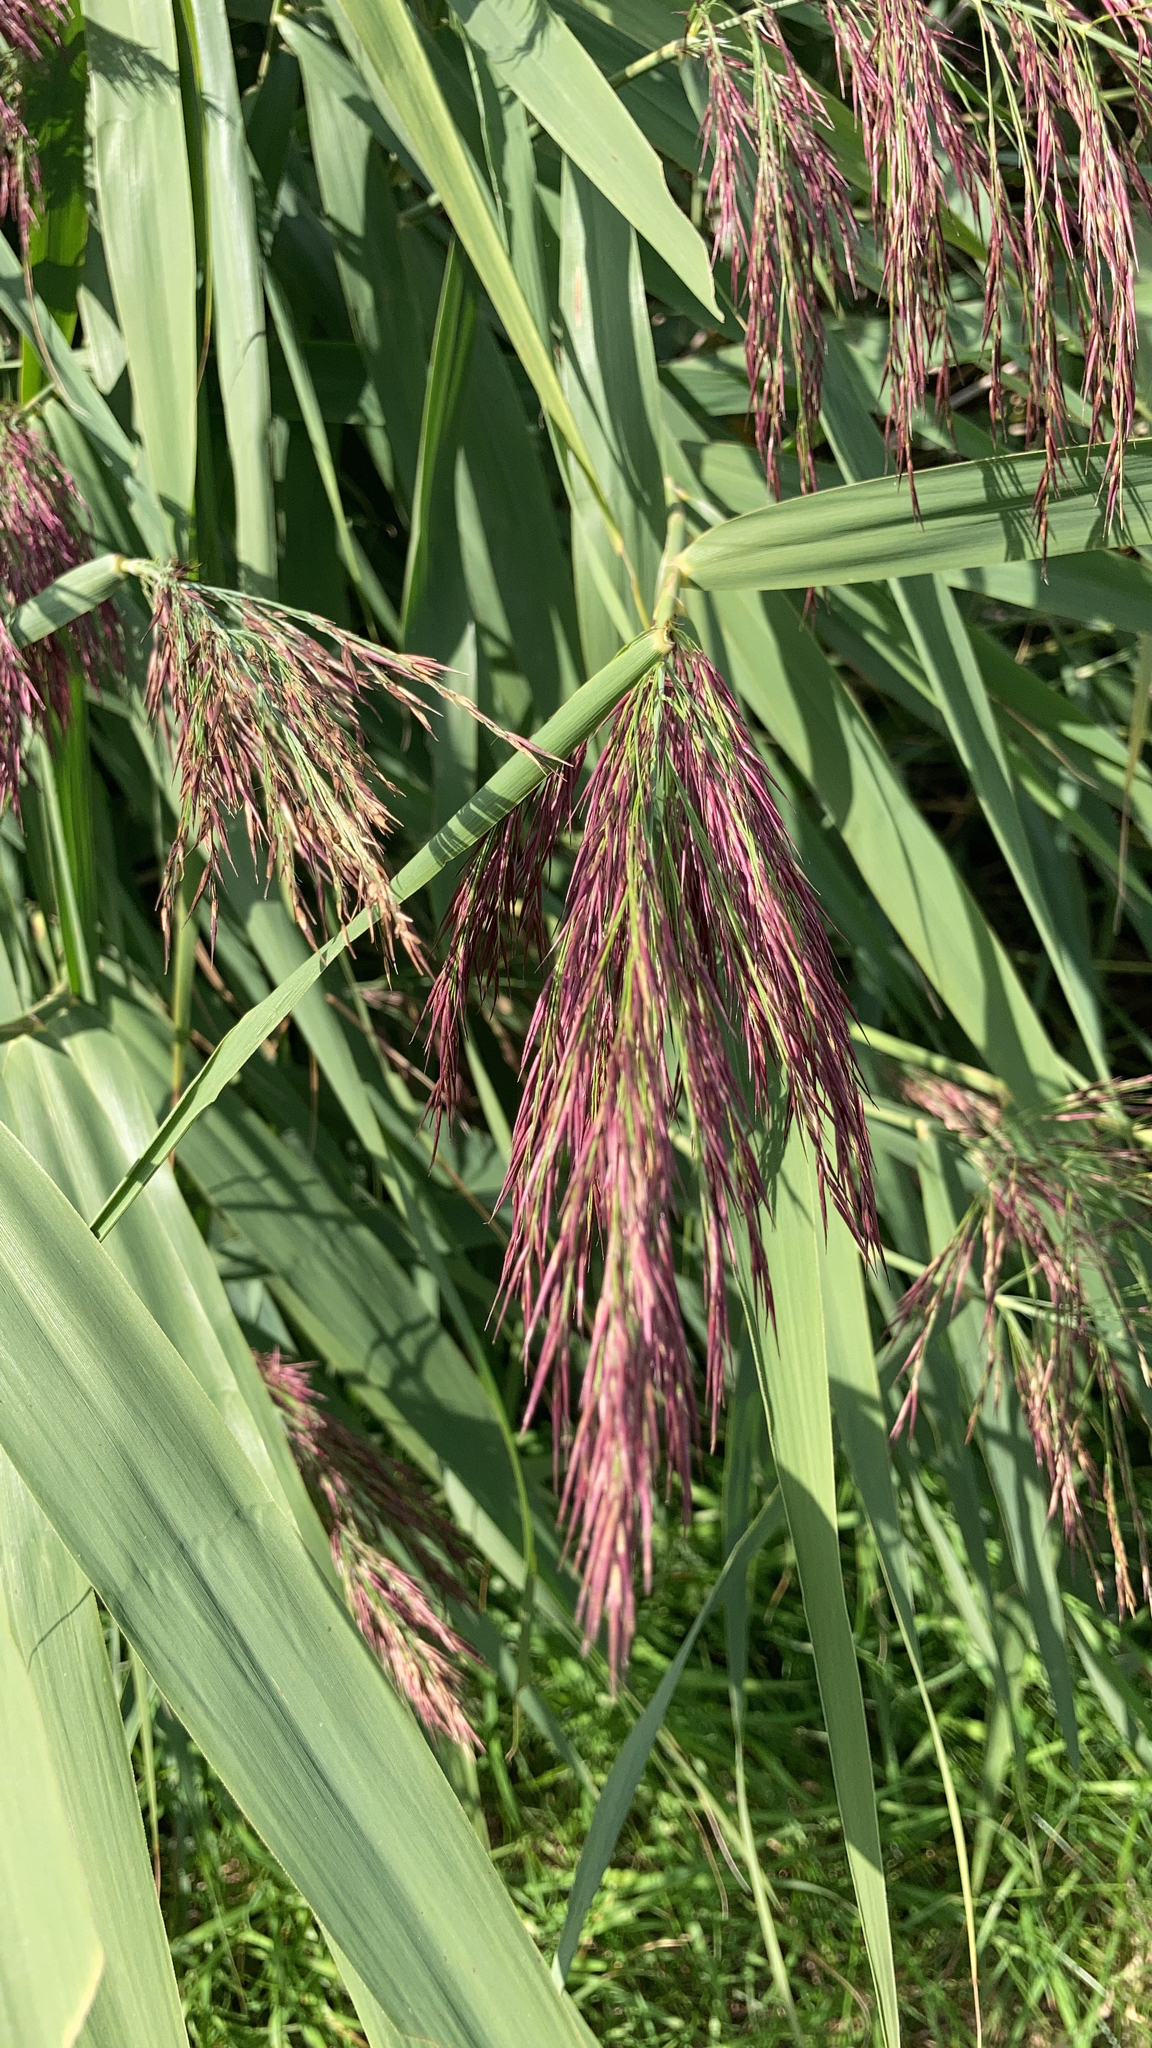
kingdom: Plantae
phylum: Tracheophyta
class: Liliopsida
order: Poales
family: Poaceae
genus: Phragmites
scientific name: Phragmites australis
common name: Common reed
